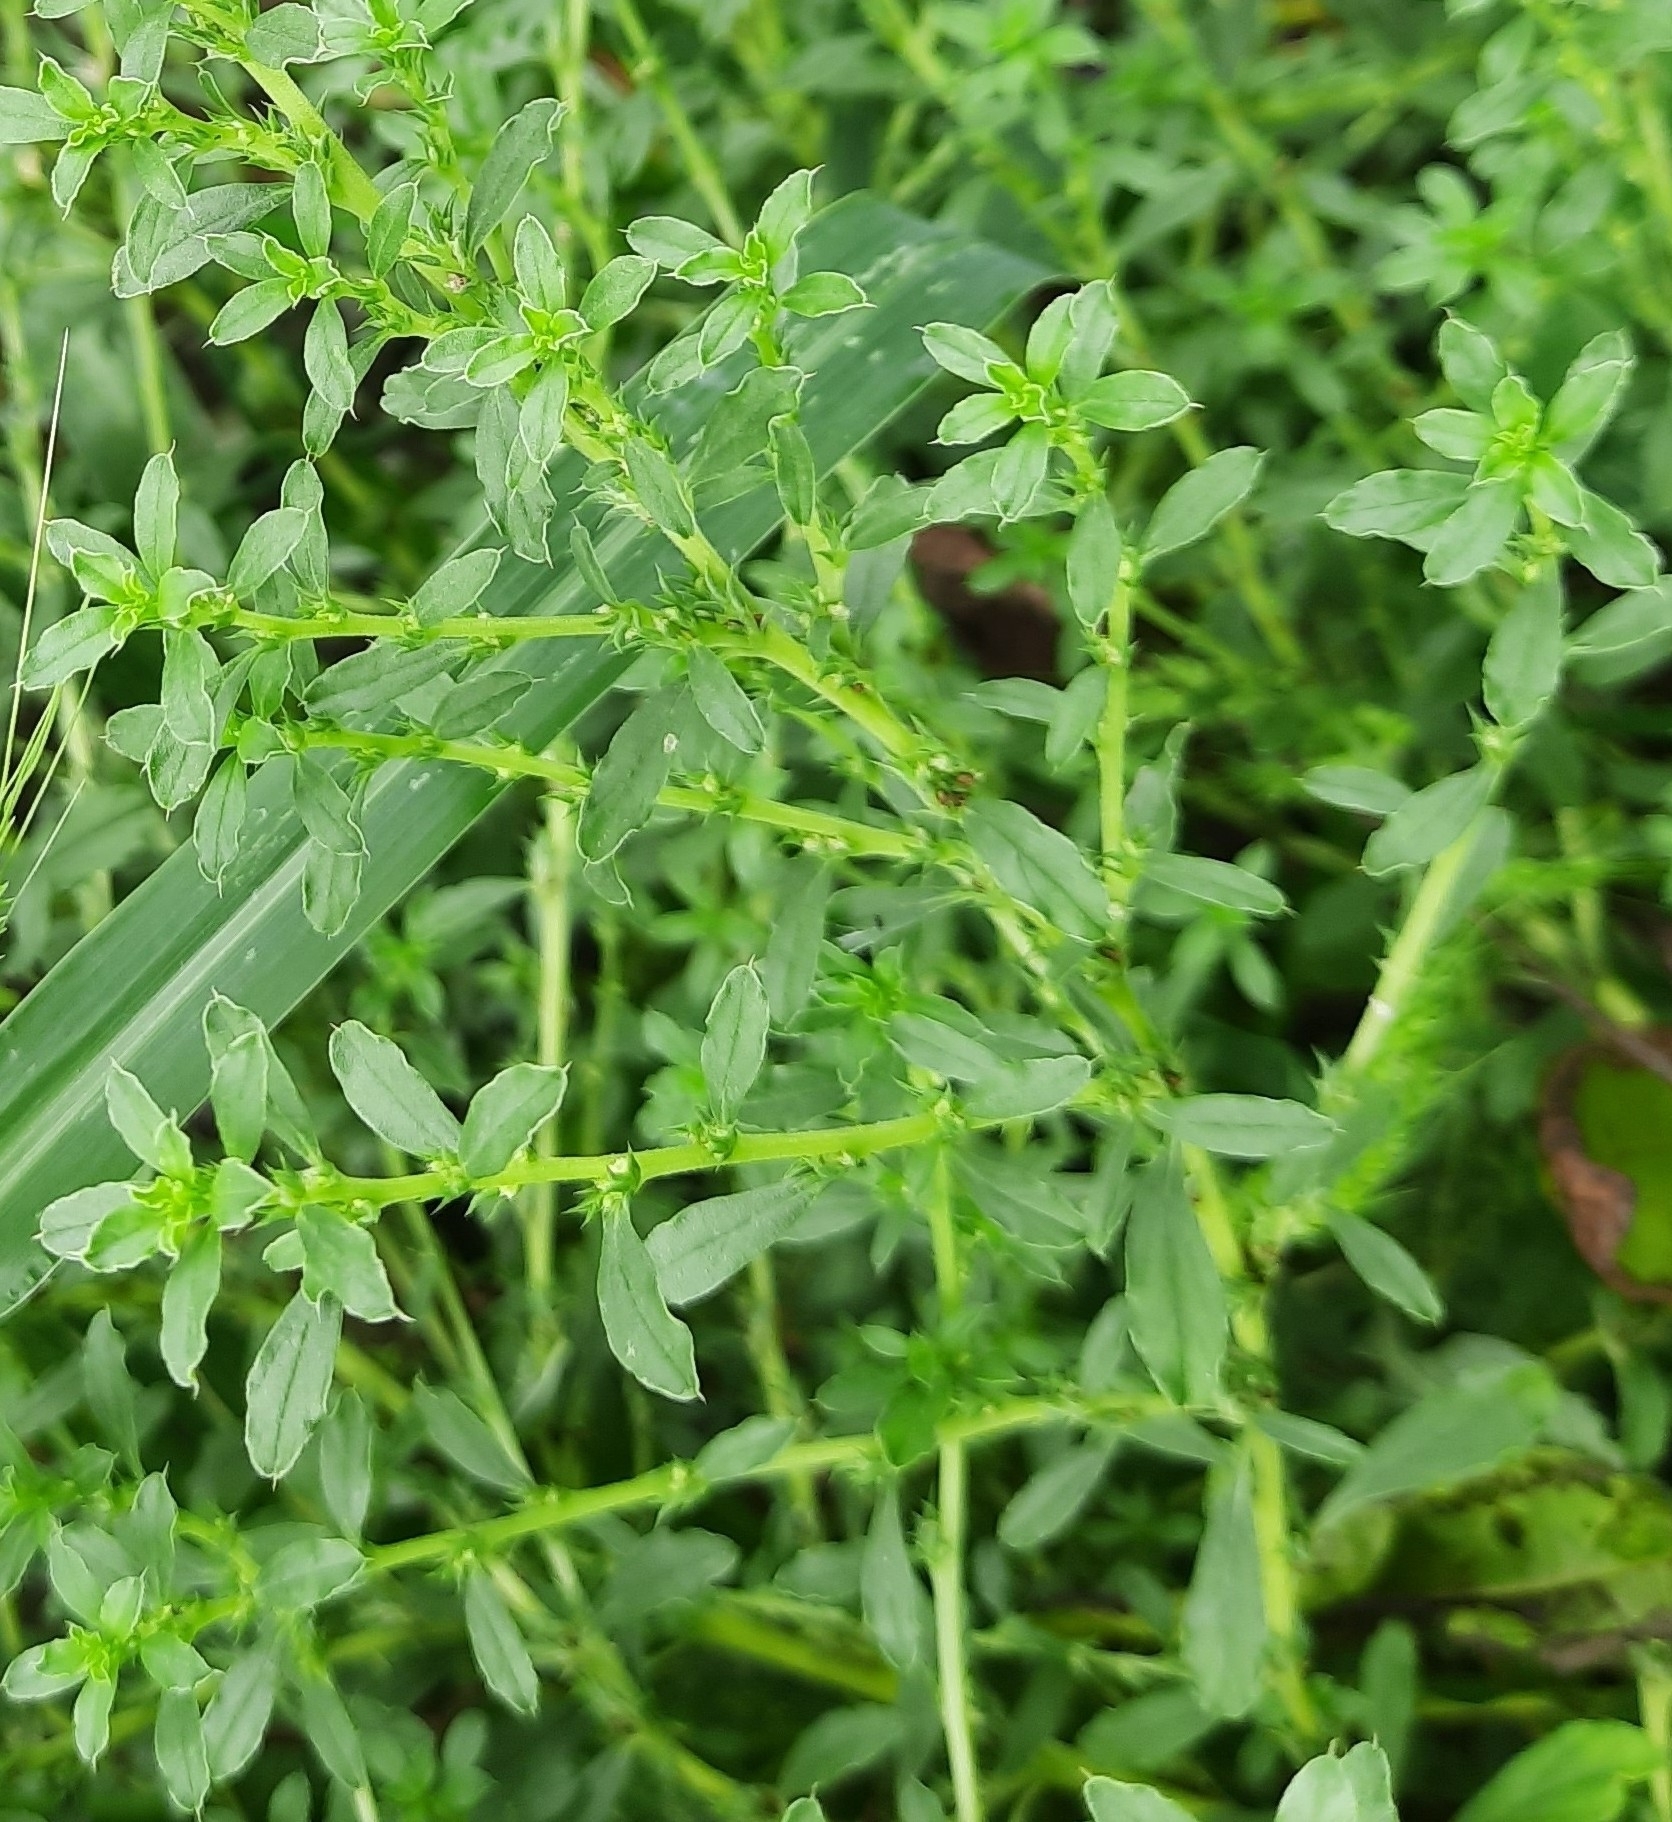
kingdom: Plantae
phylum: Tracheophyta
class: Magnoliopsida
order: Caryophyllales
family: Amaranthaceae
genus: Amaranthus
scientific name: Amaranthus albus
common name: White pigweed
